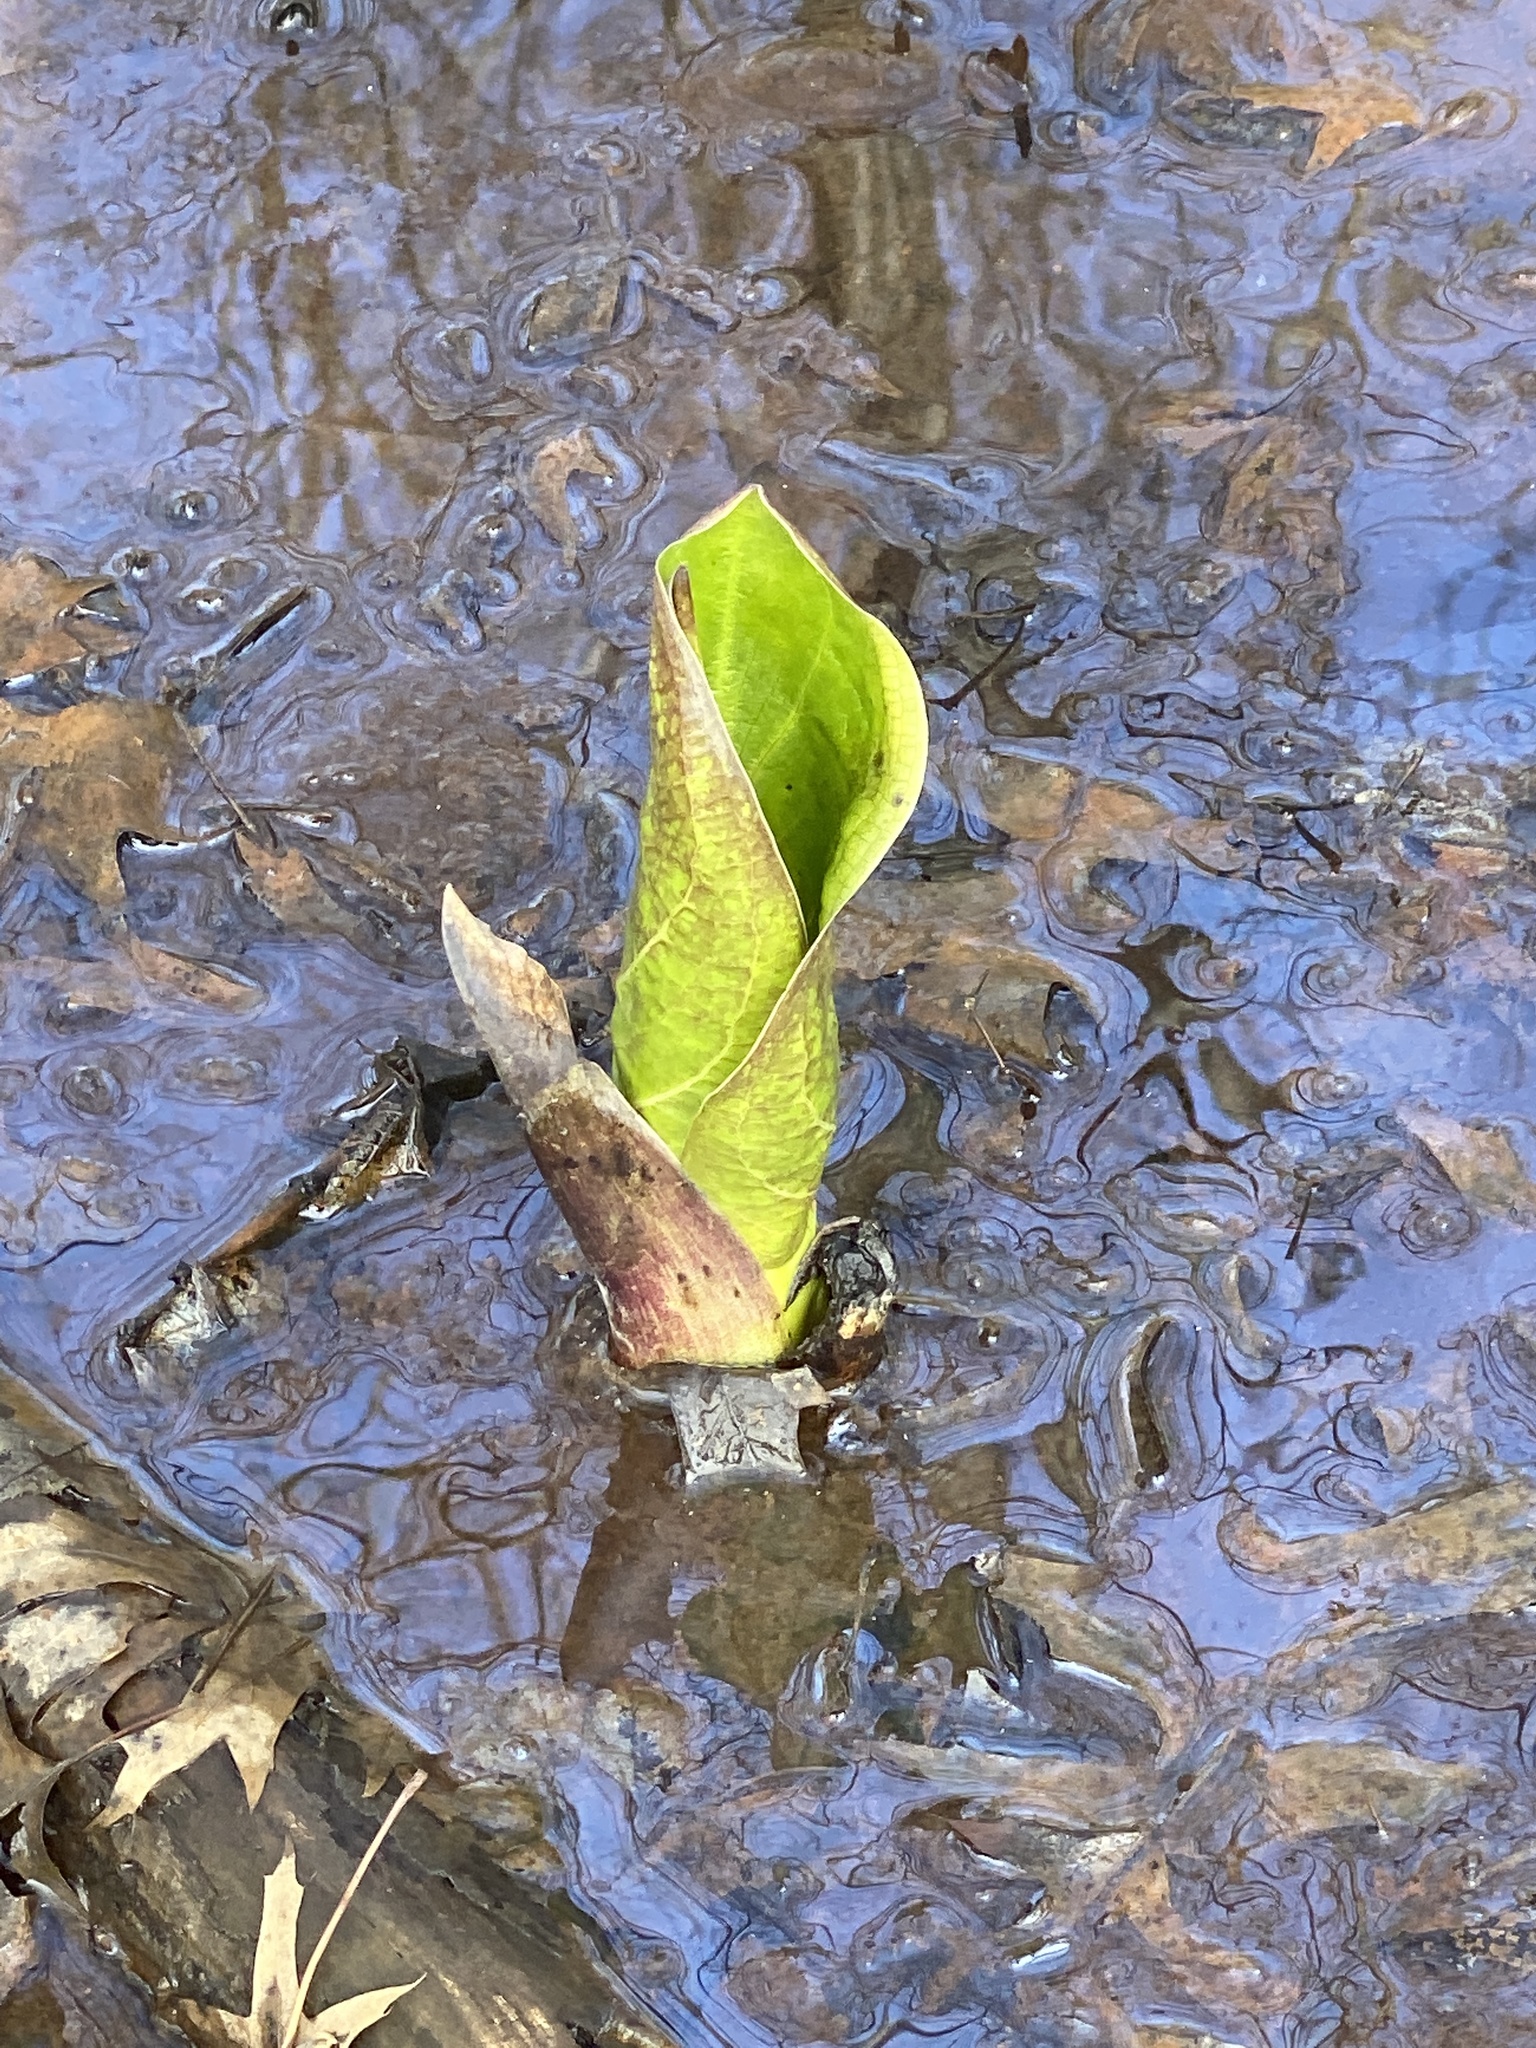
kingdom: Plantae
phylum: Tracheophyta
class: Liliopsida
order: Alismatales
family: Araceae
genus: Symplocarpus
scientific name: Symplocarpus foetidus
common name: Eastern skunk cabbage
